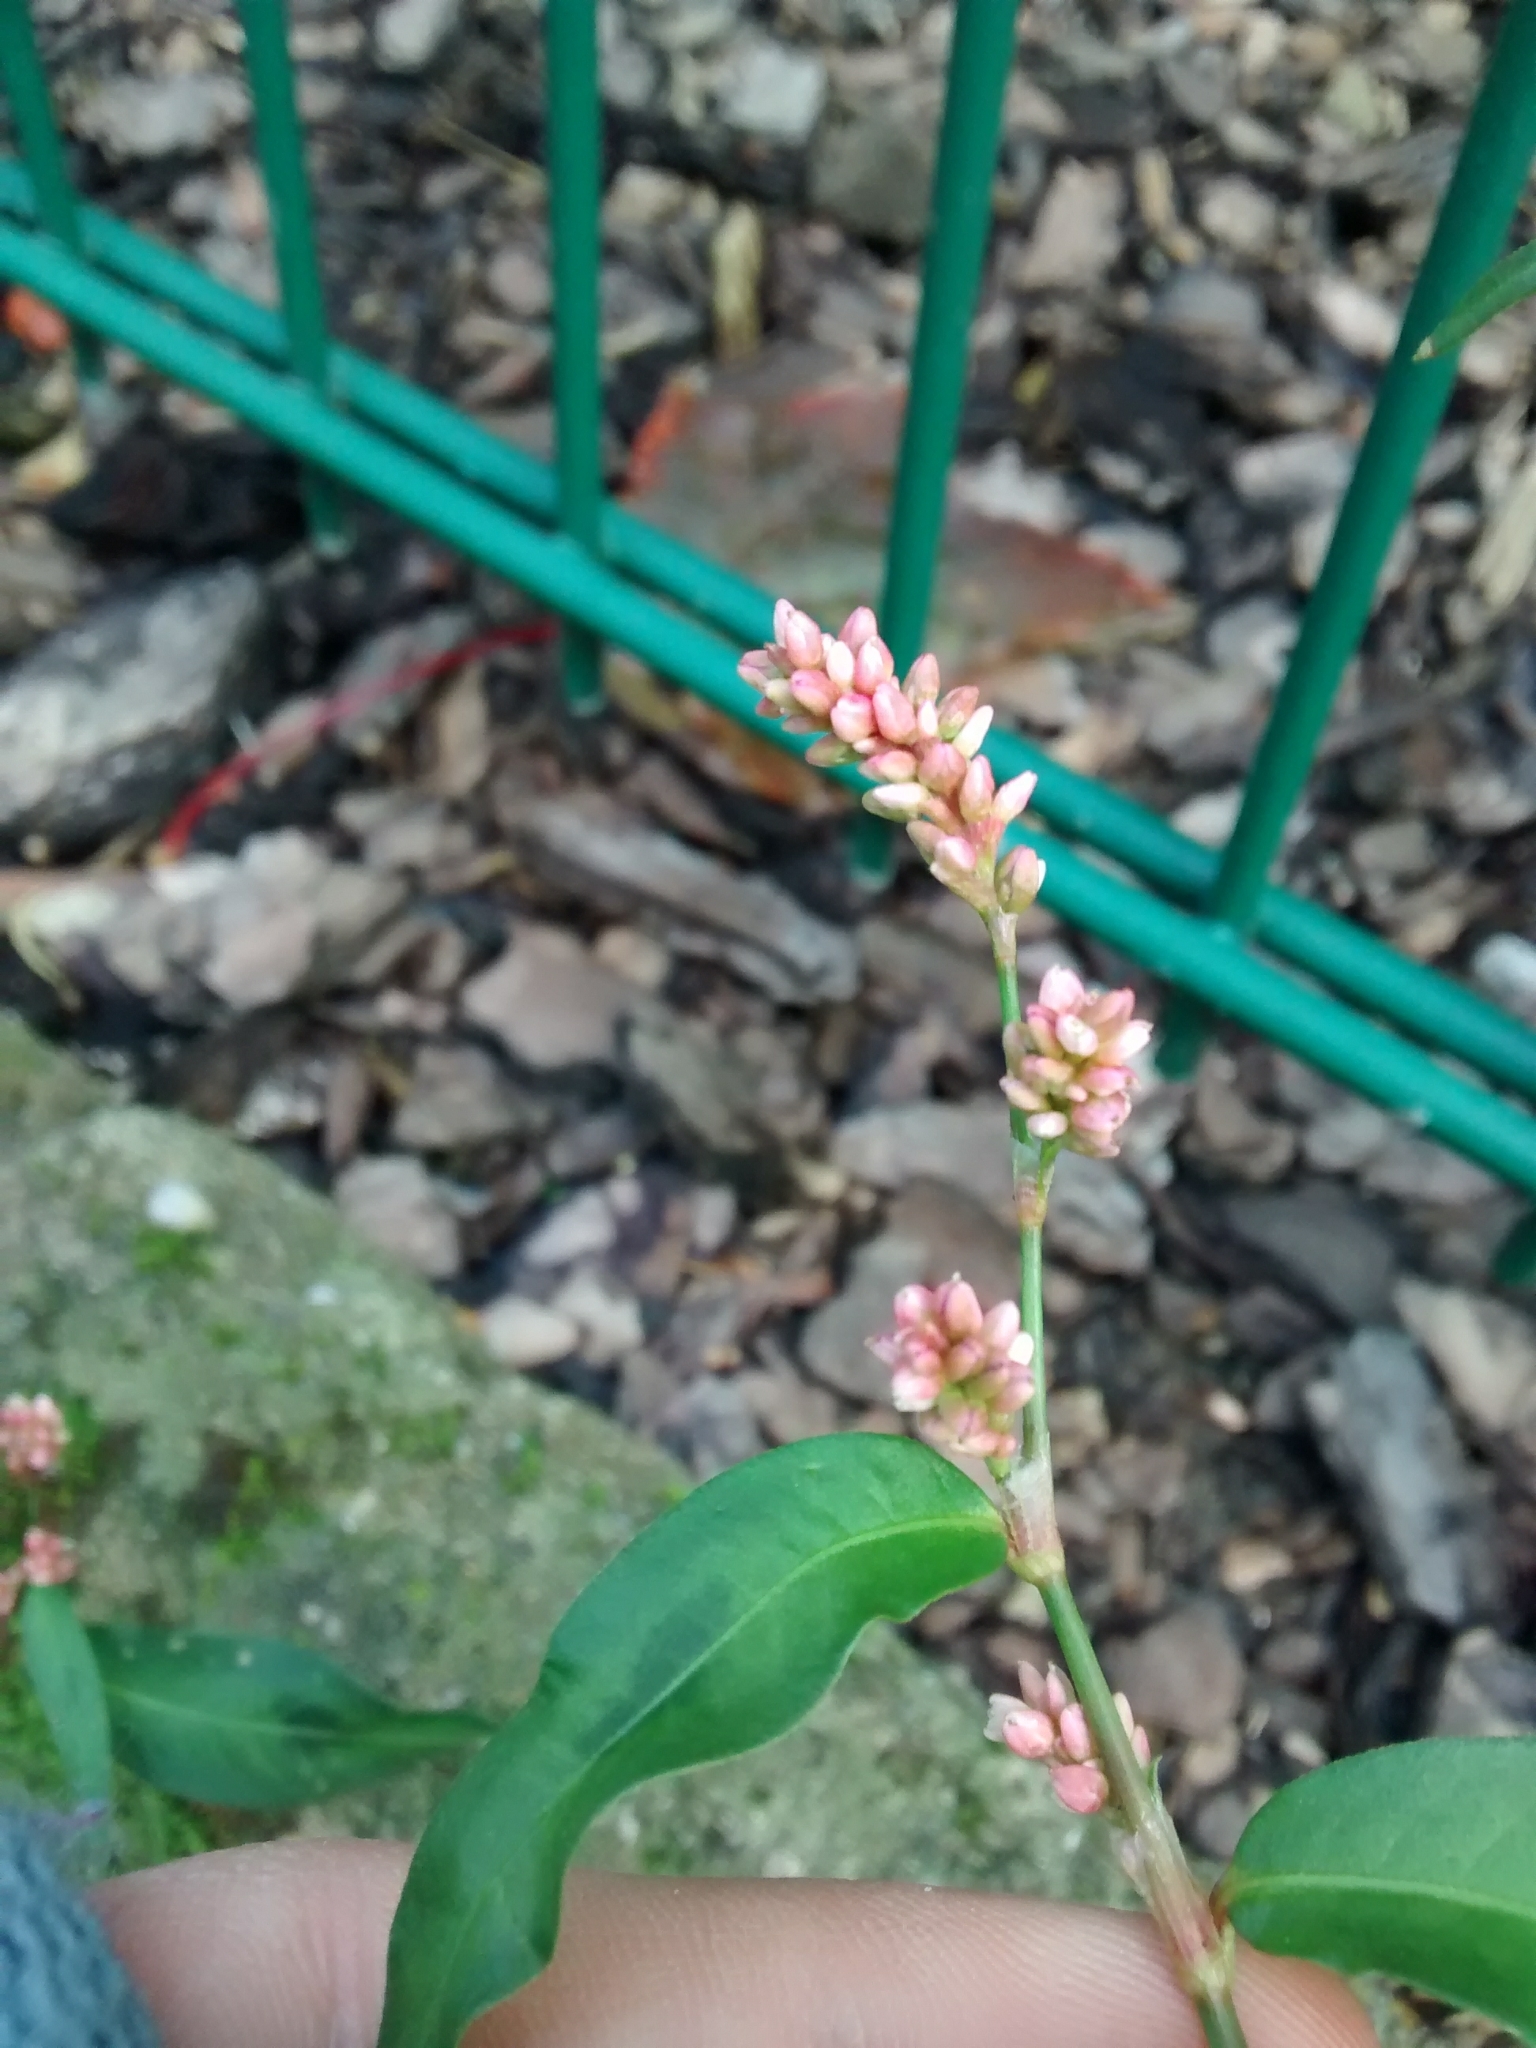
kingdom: Plantae
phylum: Tracheophyta
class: Magnoliopsida
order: Caryophyllales
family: Polygonaceae
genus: Persicaria
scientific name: Persicaria maculosa
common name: Redshank
